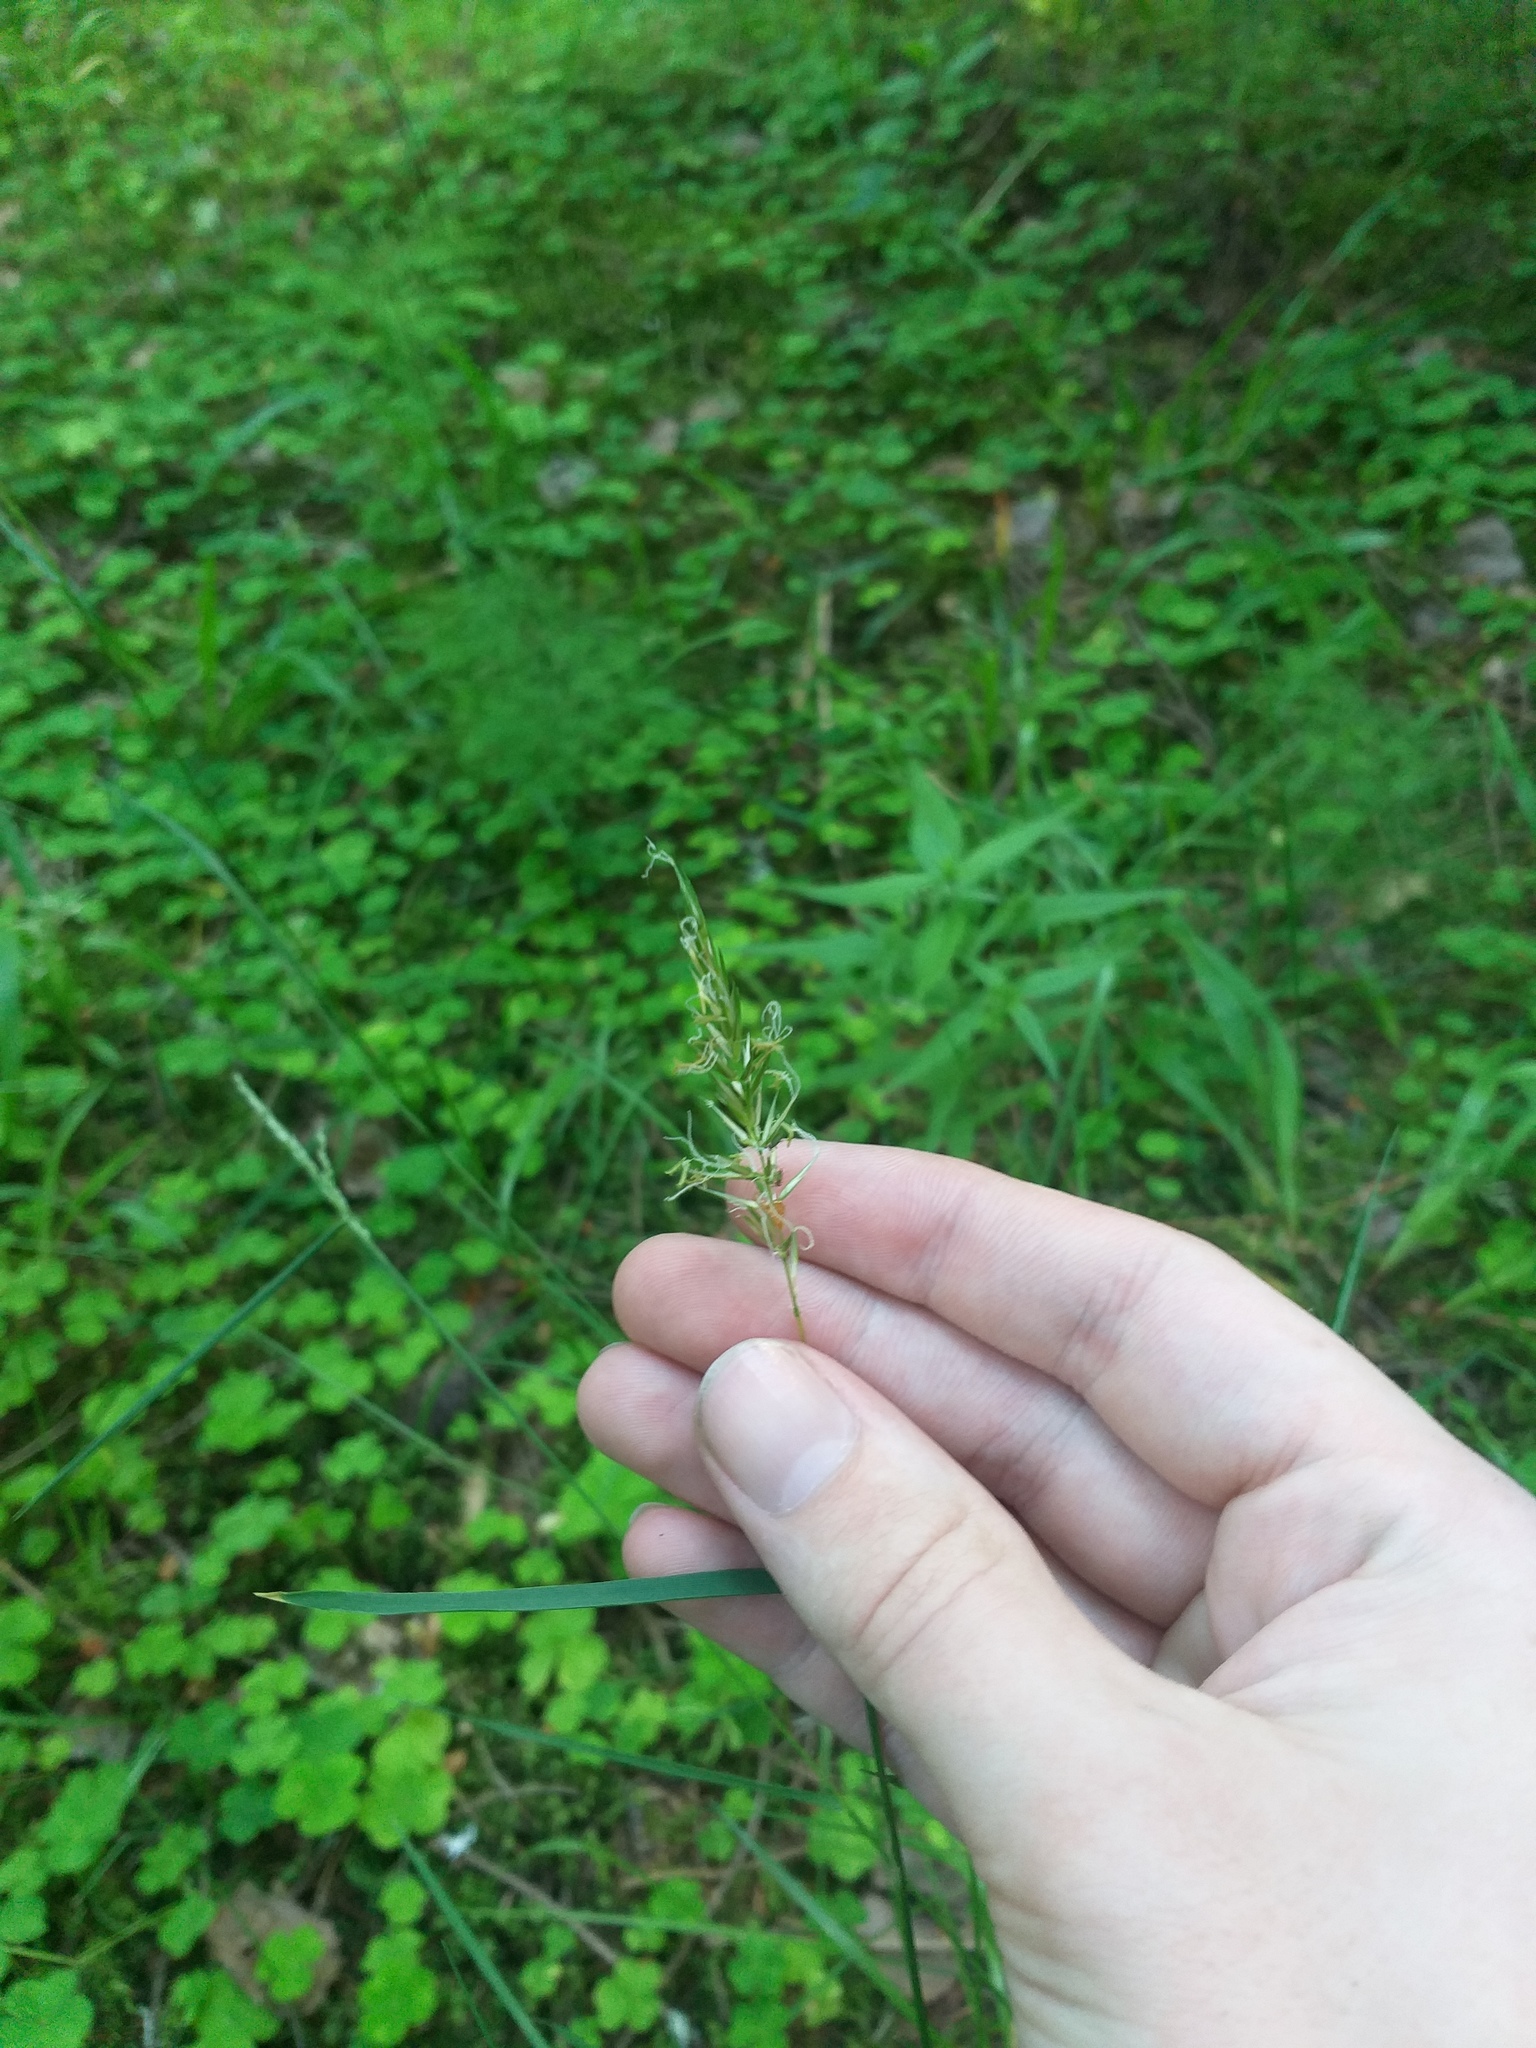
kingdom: Plantae
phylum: Tracheophyta
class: Liliopsida
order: Poales
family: Poaceae
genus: Anthoxanthum
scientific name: Anthoxanthum odoratum
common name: Sweet vernalgrass
